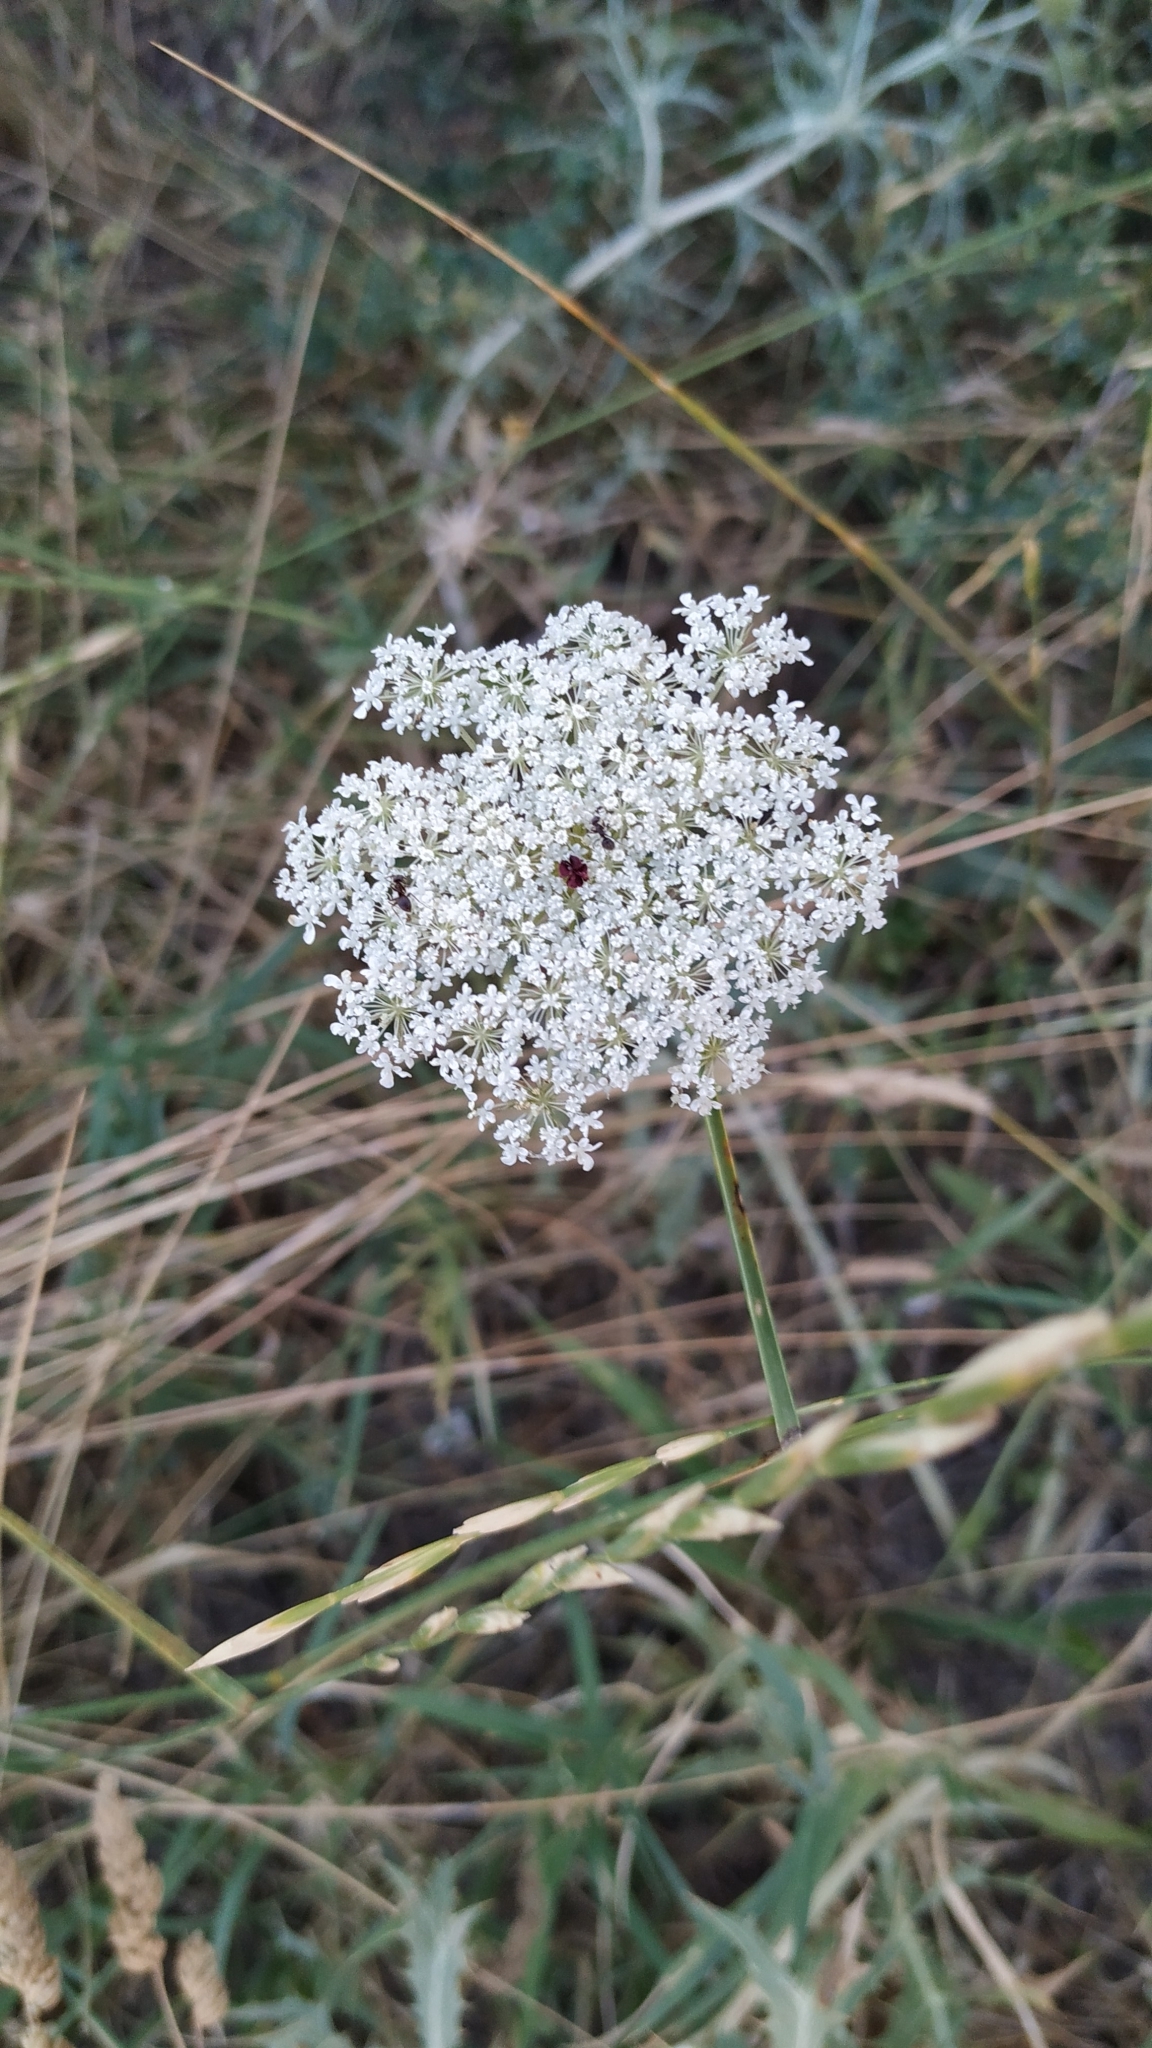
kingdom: Plantae
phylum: Tracheophyta
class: Magnoliopsida
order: Apiales
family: Apiaceae
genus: Daucus
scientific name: Daucus carota
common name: Wild carrot
